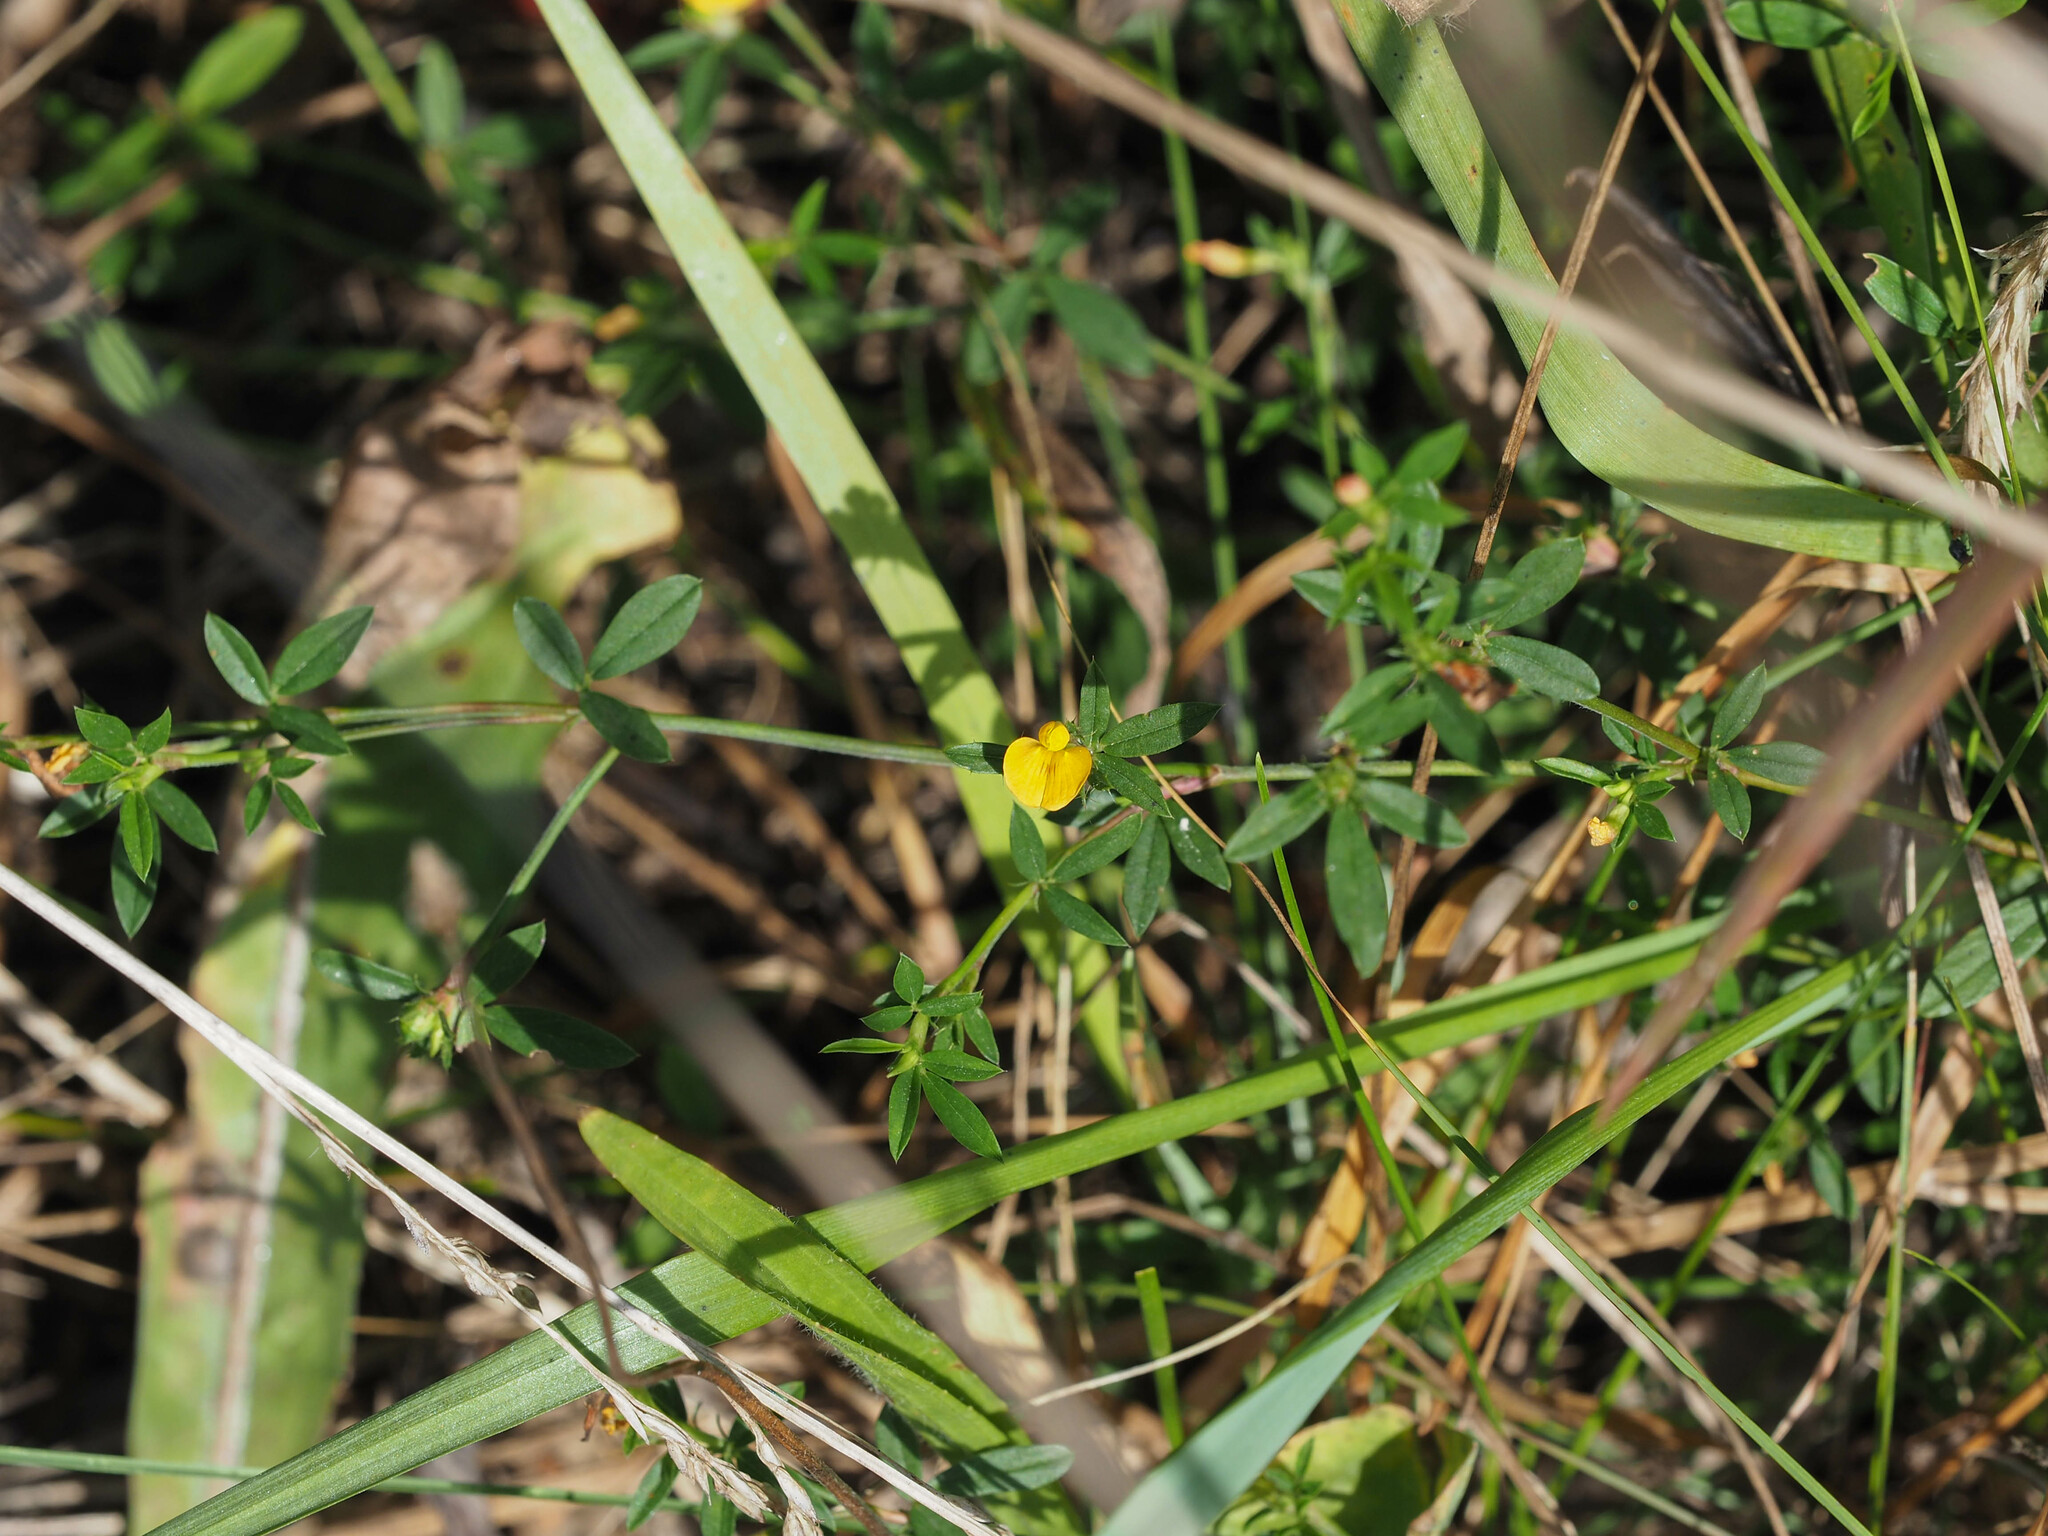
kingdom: Plantae
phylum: Tracheophyta
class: Magnoliopsida
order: Fabales
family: Fabaceae
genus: Stylosanthes
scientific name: Stylosanthes biflora
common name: Two-flower pencil-flower
